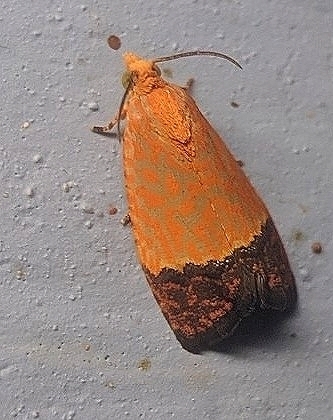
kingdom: Animalia
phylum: Arthropoda
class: Insecta
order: Lepidoptera
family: Tortricidae
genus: Loboschiza
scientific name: Loboschiza koenigiana
